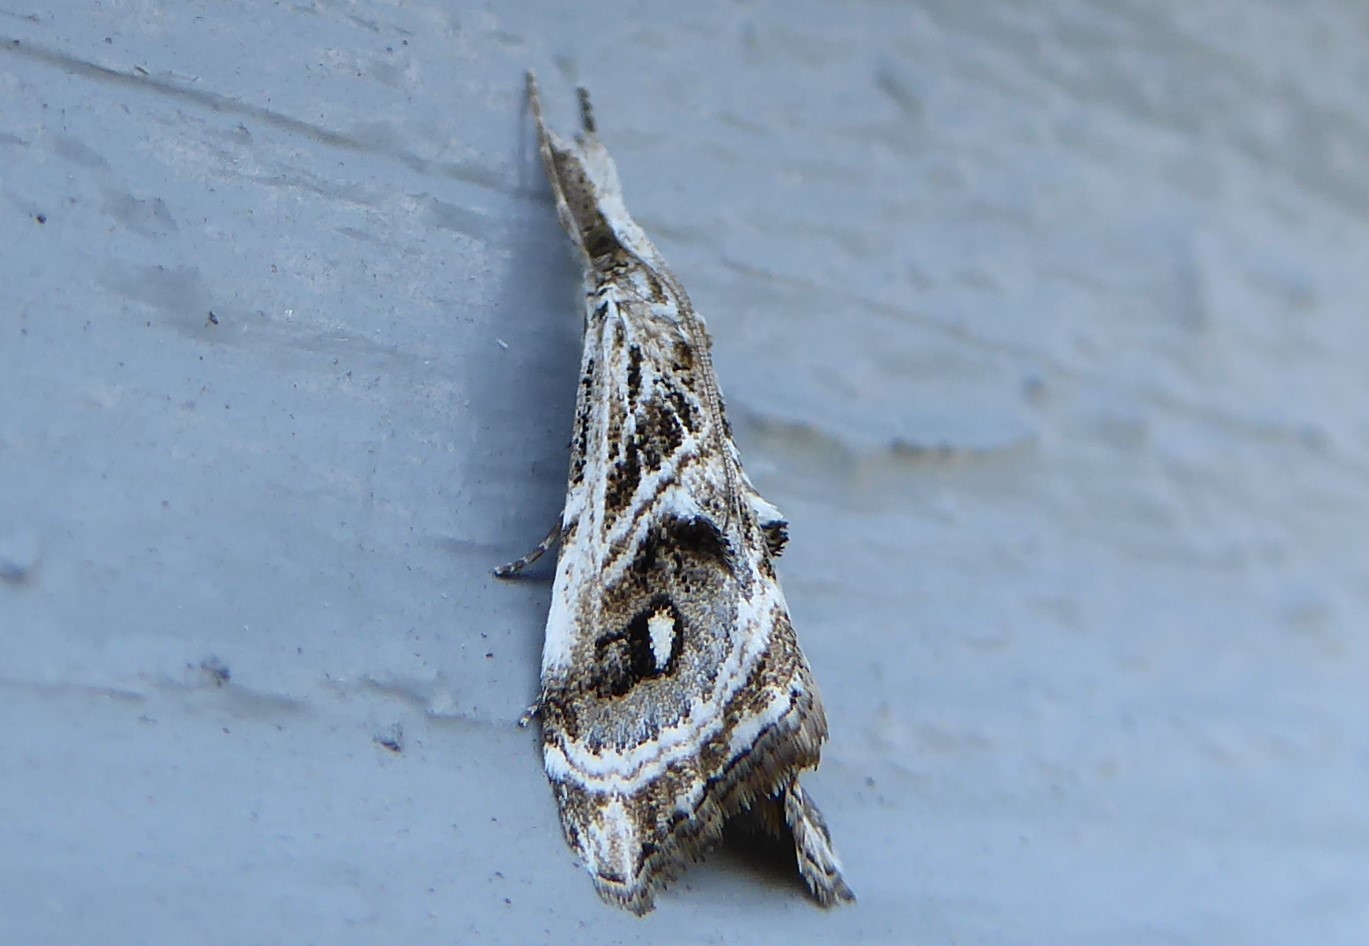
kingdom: Animalia
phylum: Arthropoda
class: Insecta
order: Lepidoptera
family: Crambidae
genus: Gadira
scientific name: Gadira acerella
